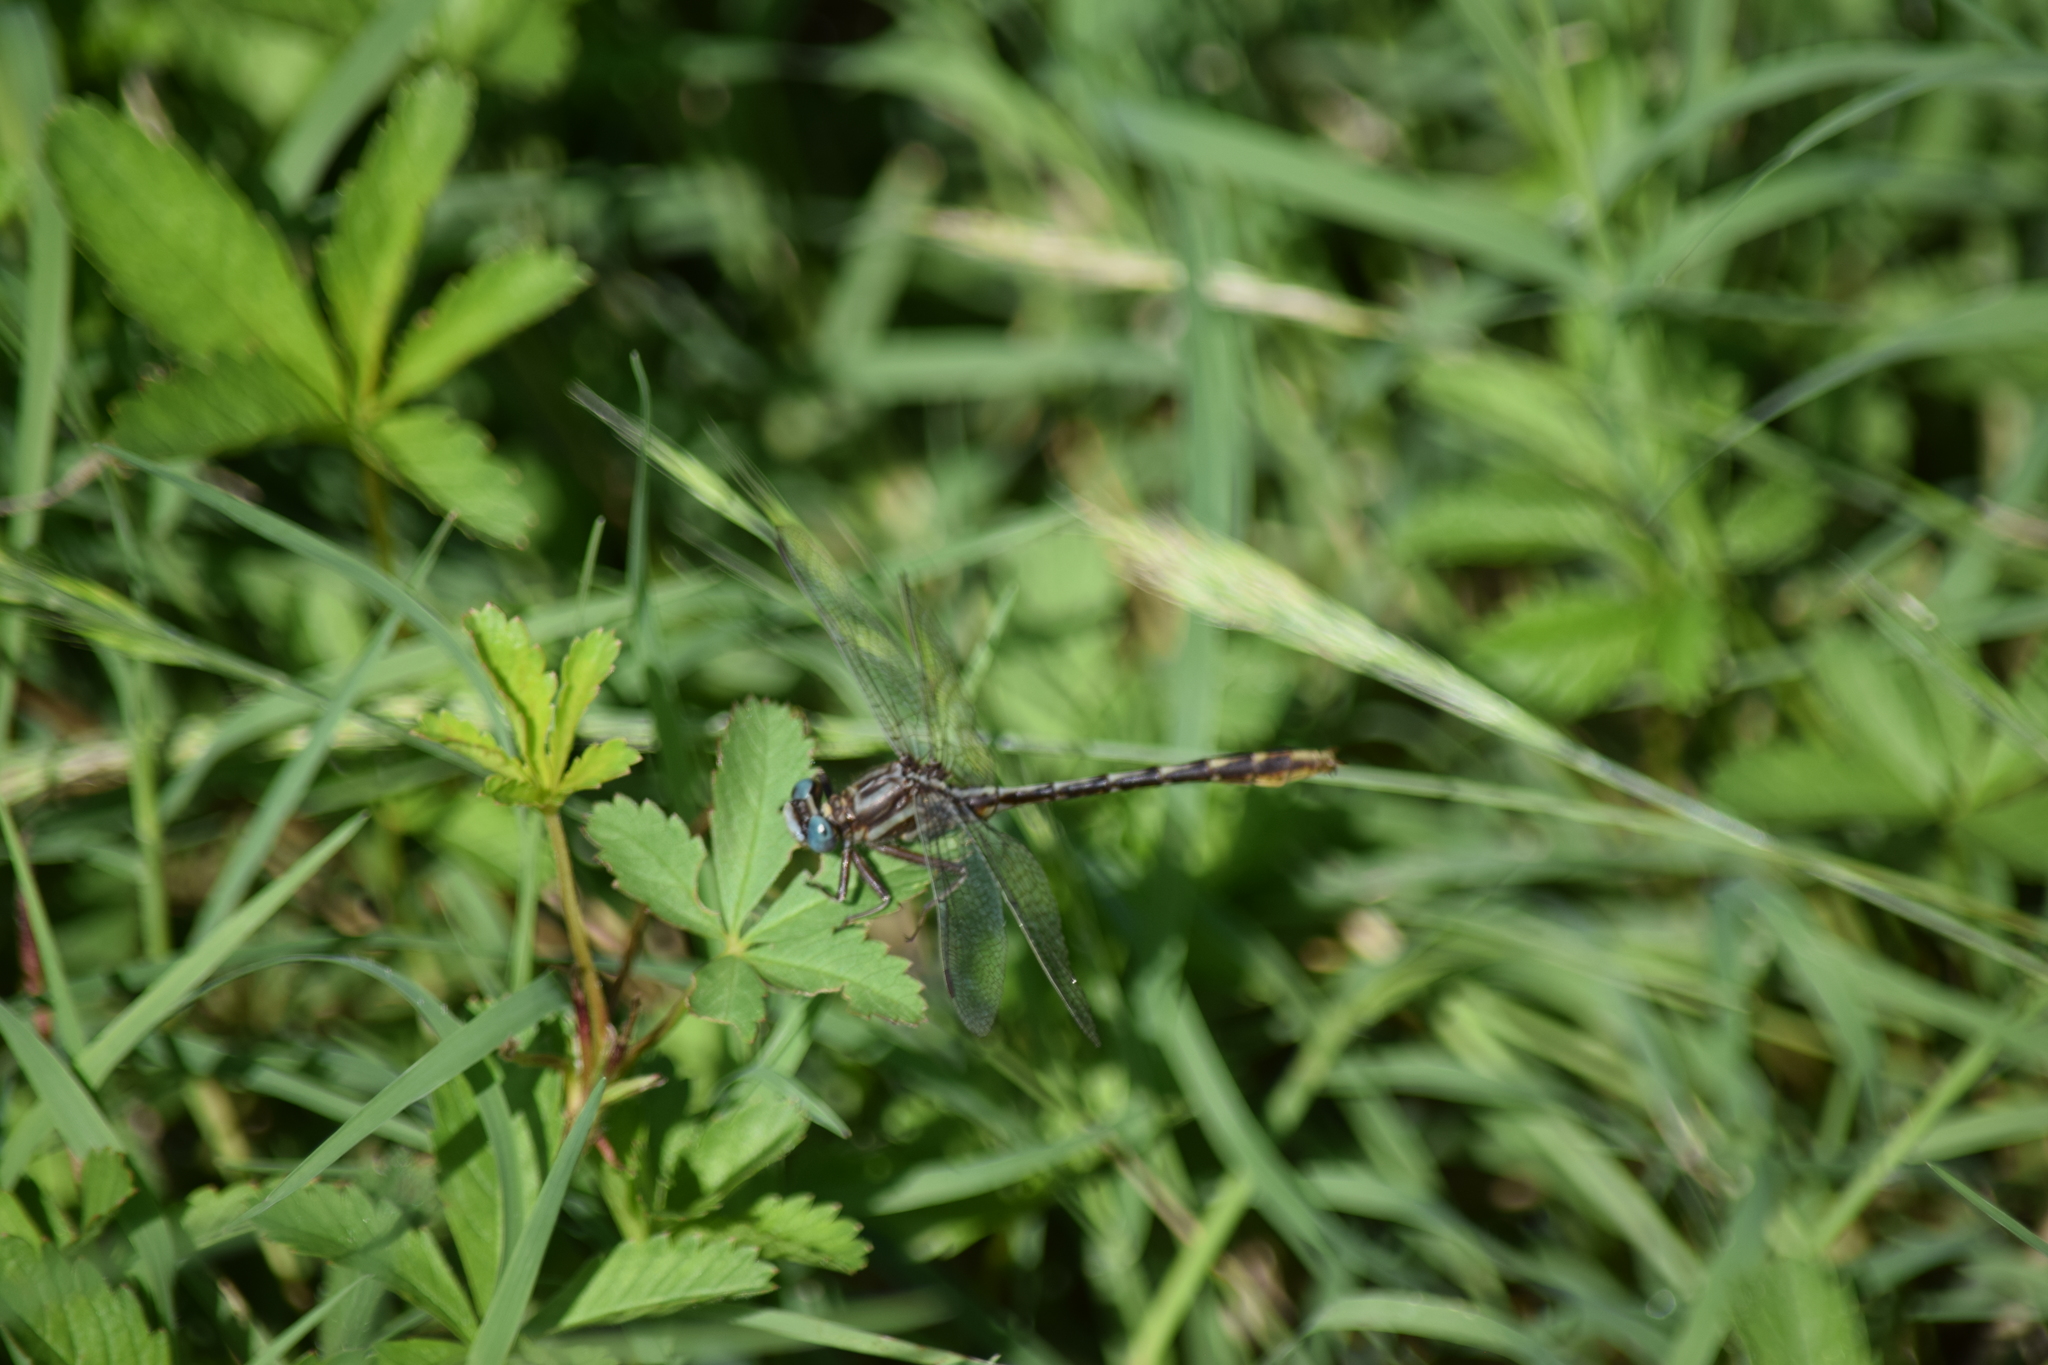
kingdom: Animalia
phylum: Arthropoda
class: Insecta
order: Odonata
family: Gomphidae
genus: Phanogomphus
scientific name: Phanogomphus exilis
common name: Lancet clubtail
